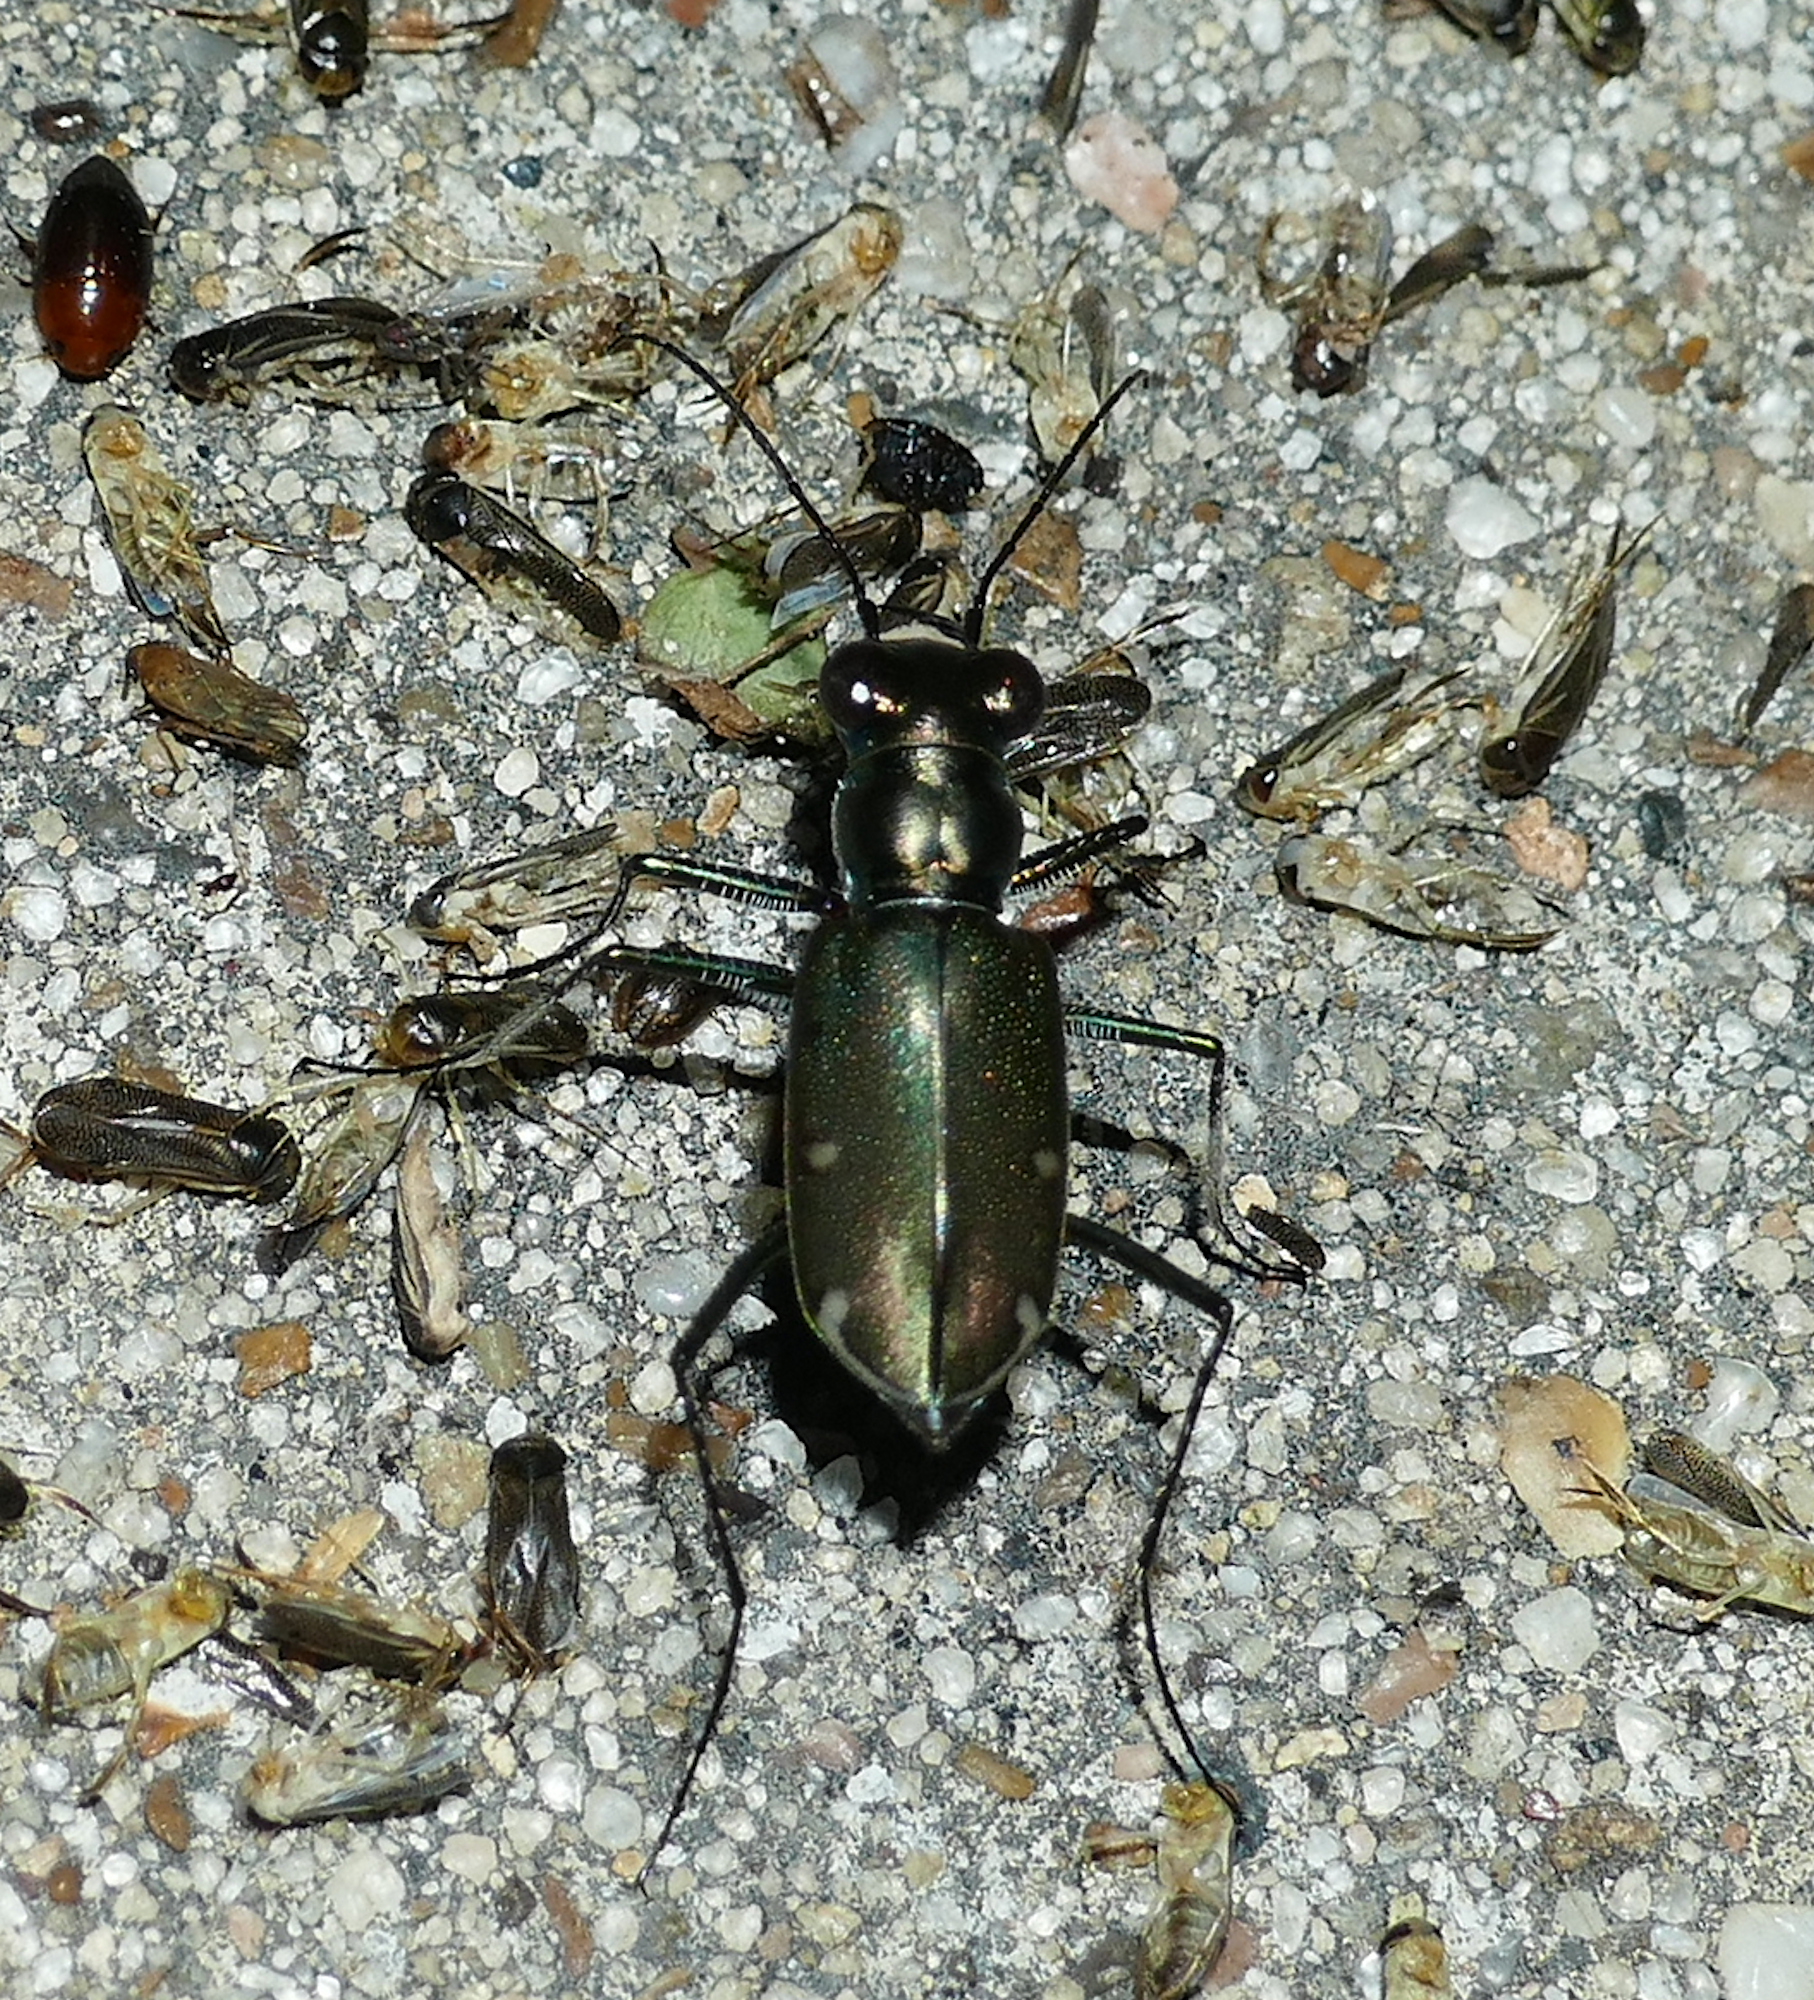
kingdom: Animalia
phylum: Arthropoda
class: Insecta
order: Coleoptera
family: Carabidae
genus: Eunota
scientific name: Eunota severa
